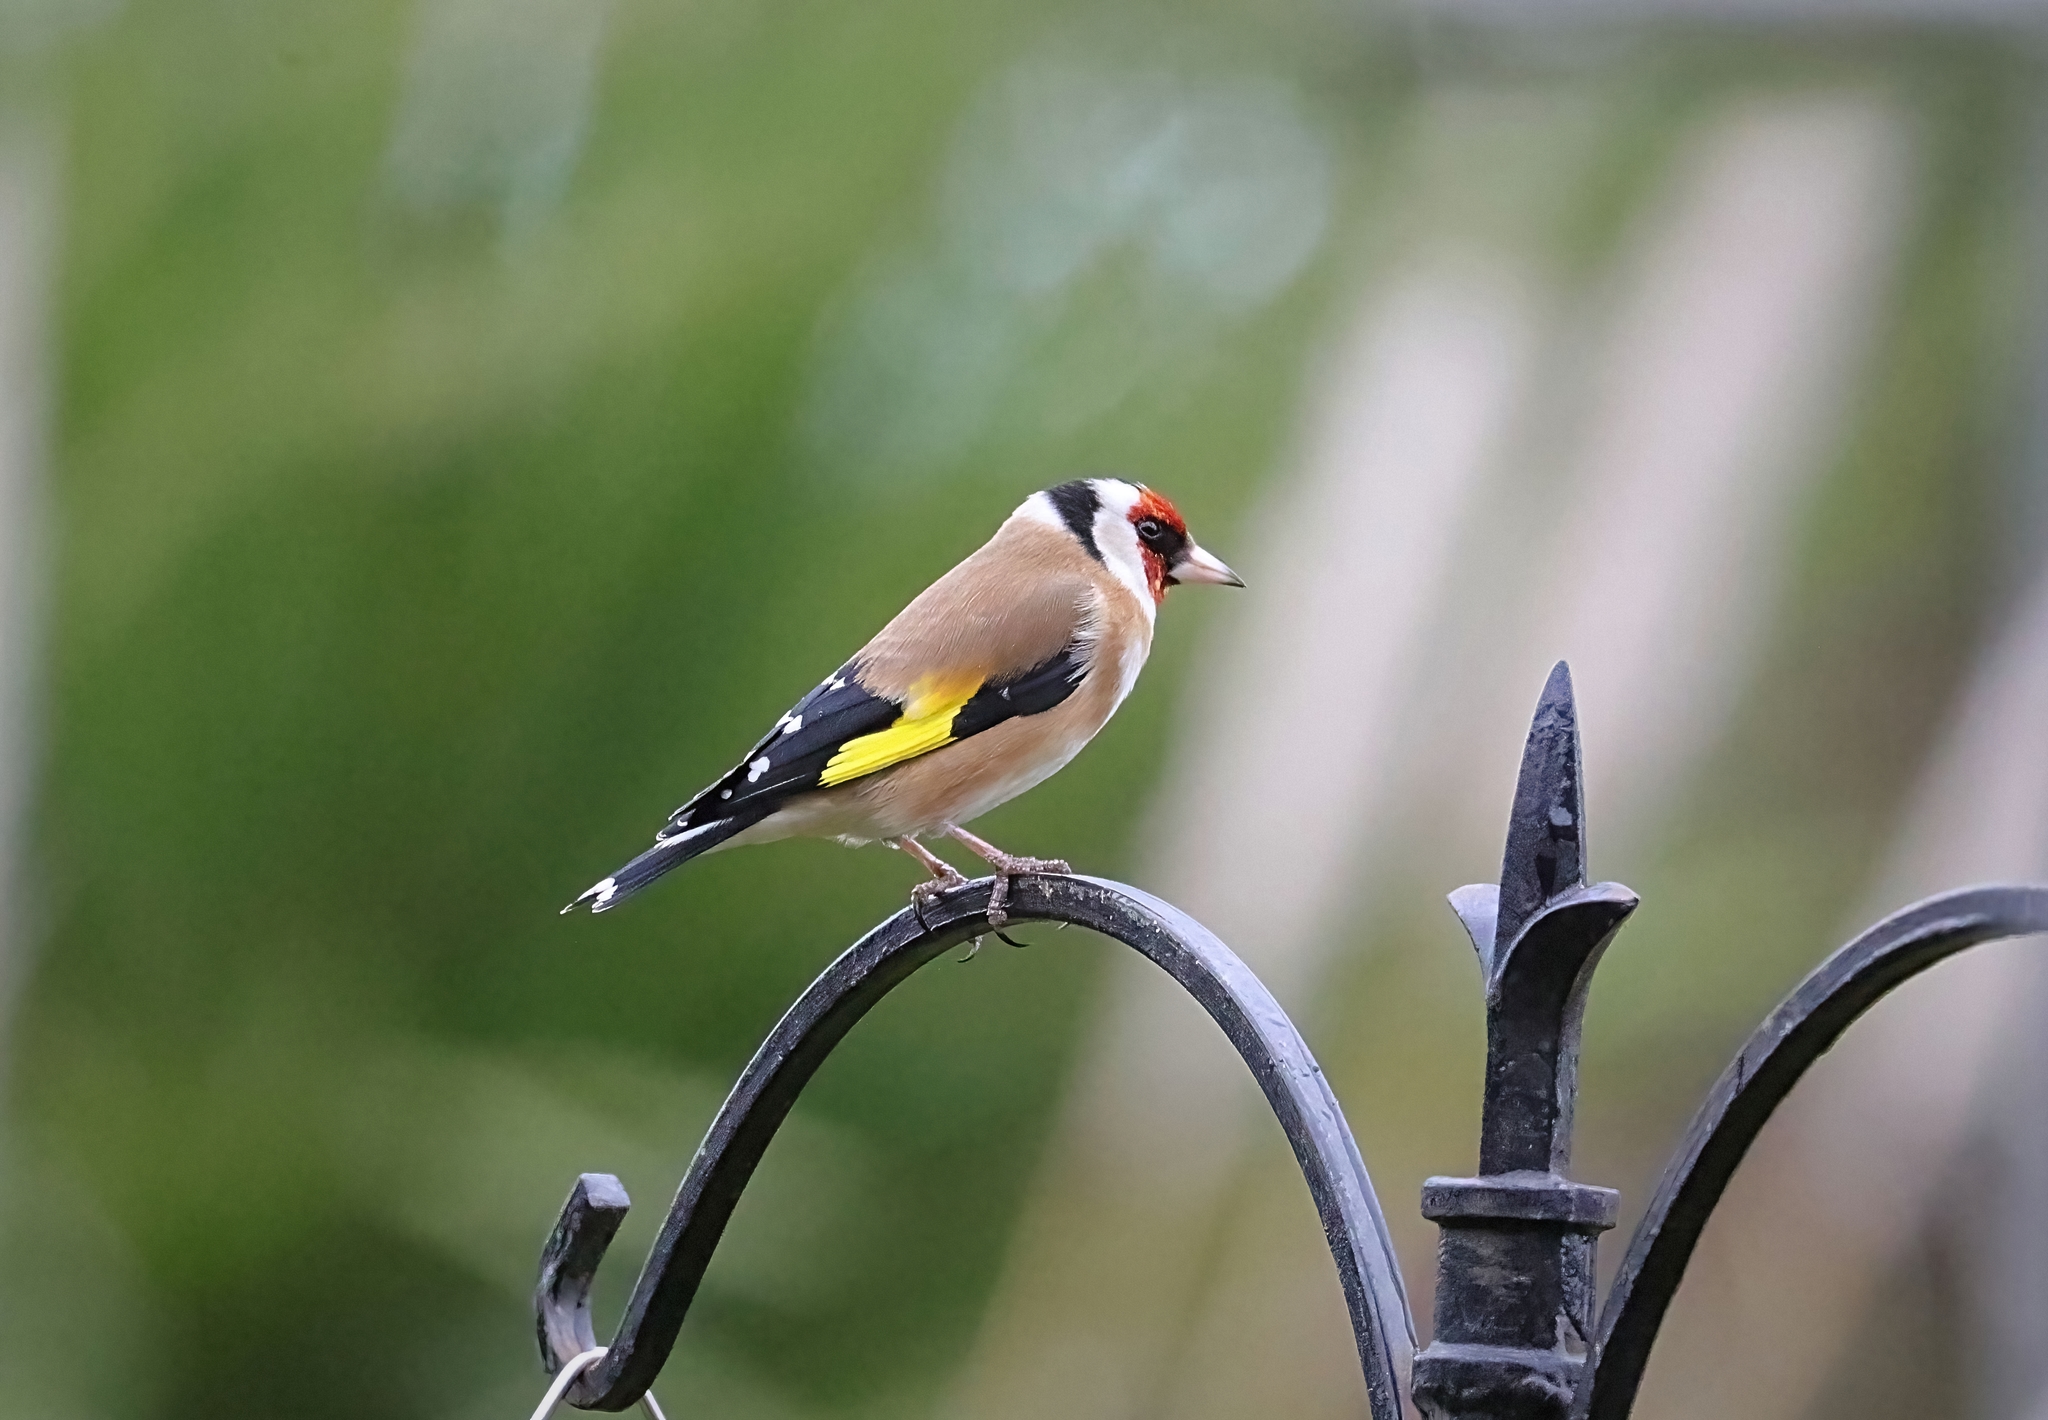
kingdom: Animalia
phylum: Chordata
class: Aves
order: Passeriformes
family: Fringillidae
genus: Carduelis
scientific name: Carduelis carduelis
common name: European goldfinch
